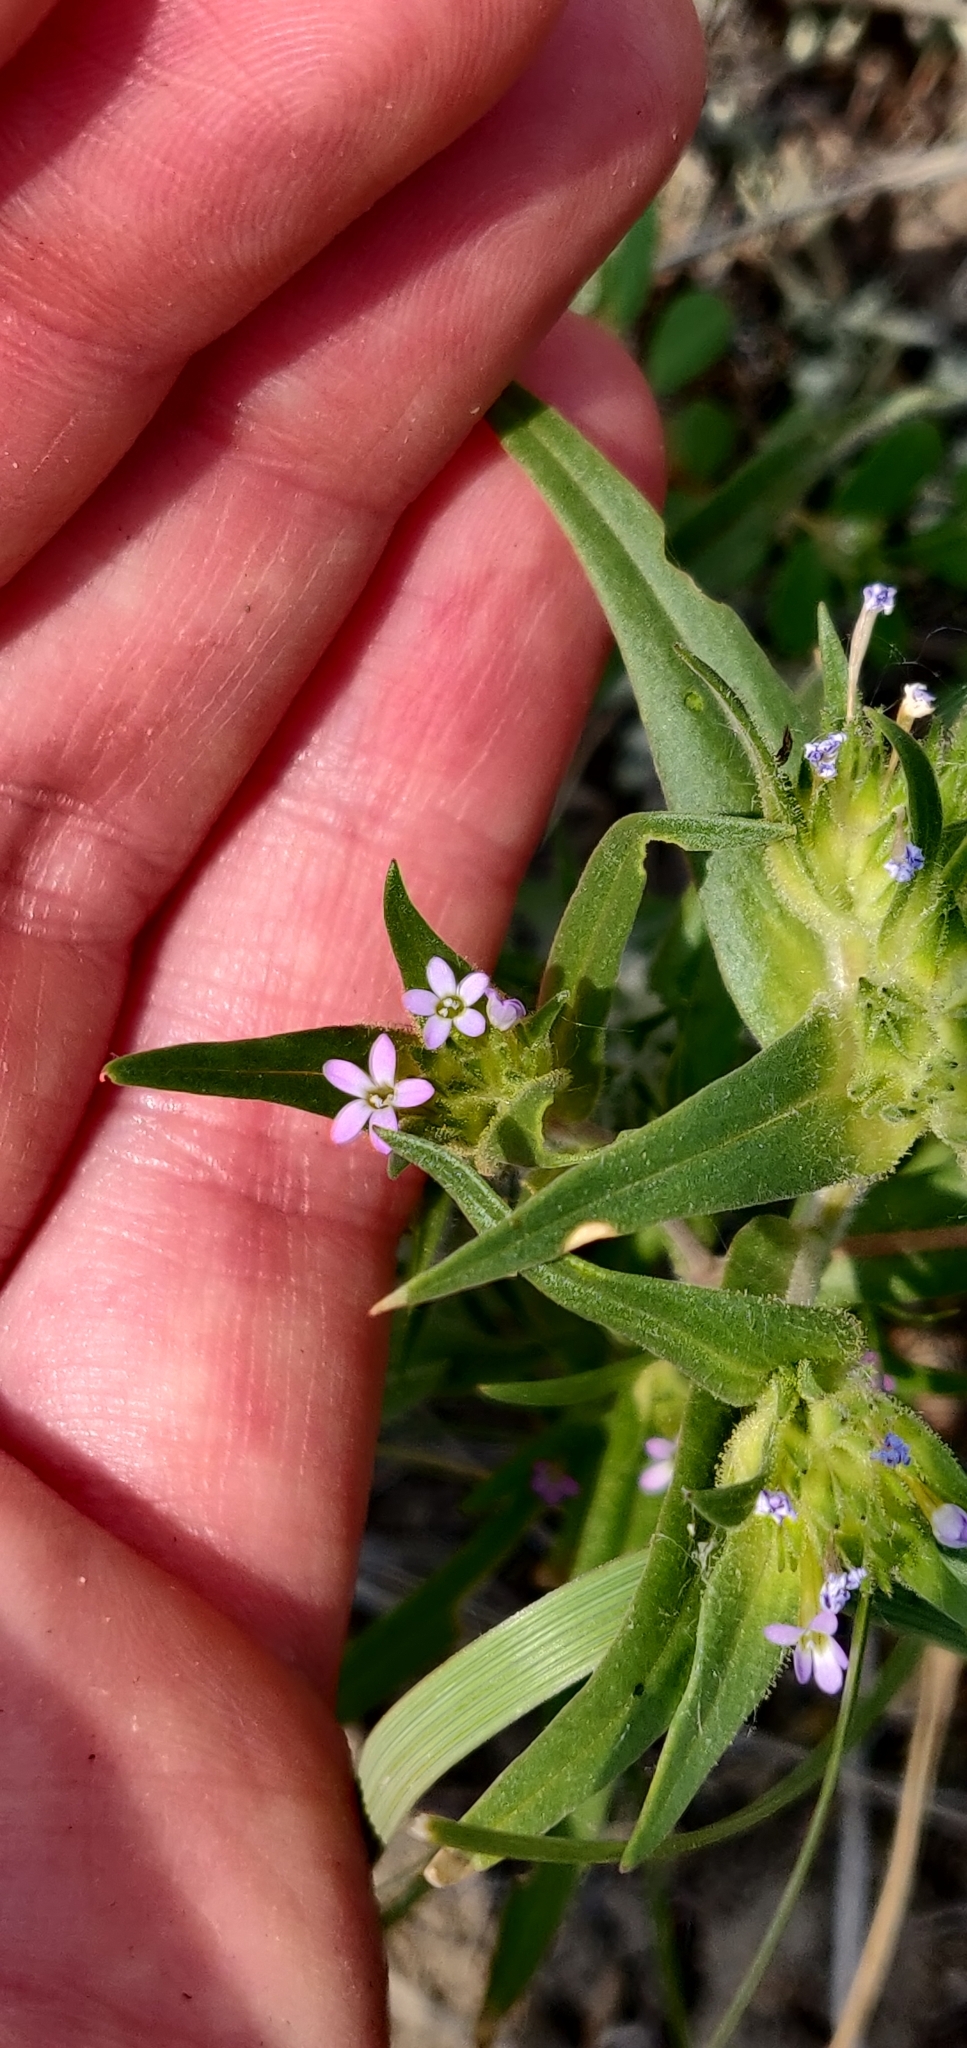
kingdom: Plantae
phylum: Tracheophyta
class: Magnoliopsida
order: Ericales
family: Polemoniaceae
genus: Collomia
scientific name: Collomia linearis
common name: Tiny trumpet
